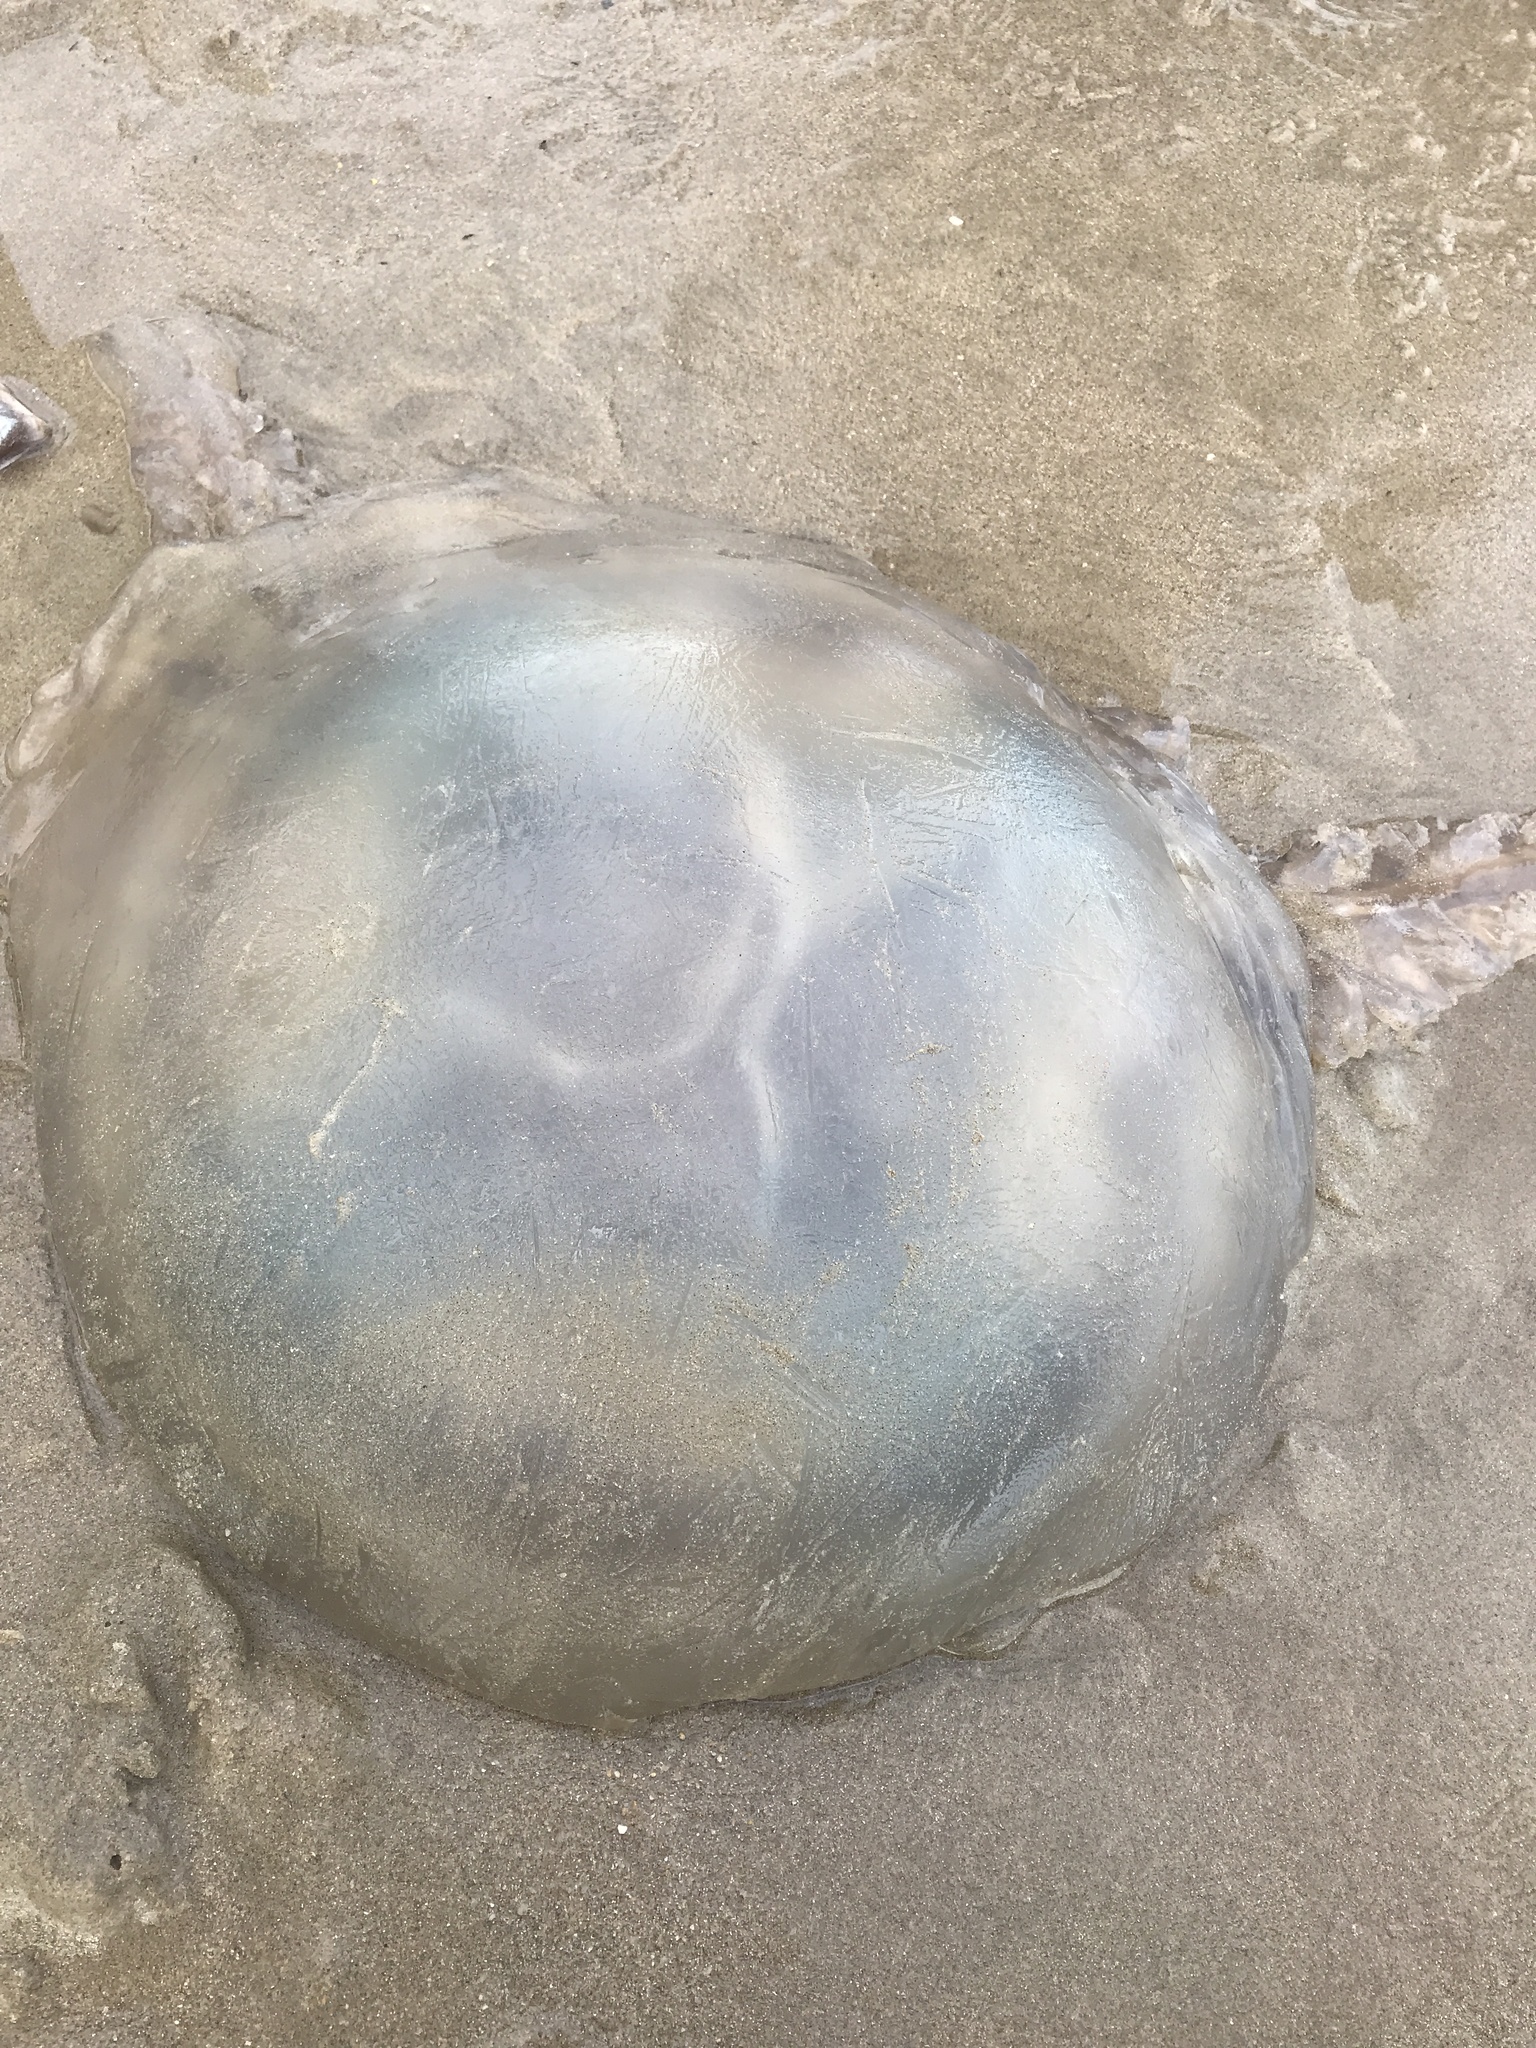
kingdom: Animalia
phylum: Cnidaria
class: Scyphozoa
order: Rhizostomeae
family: Rhizostomatidae
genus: Rhizostoma
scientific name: Rhizostoma octopus
